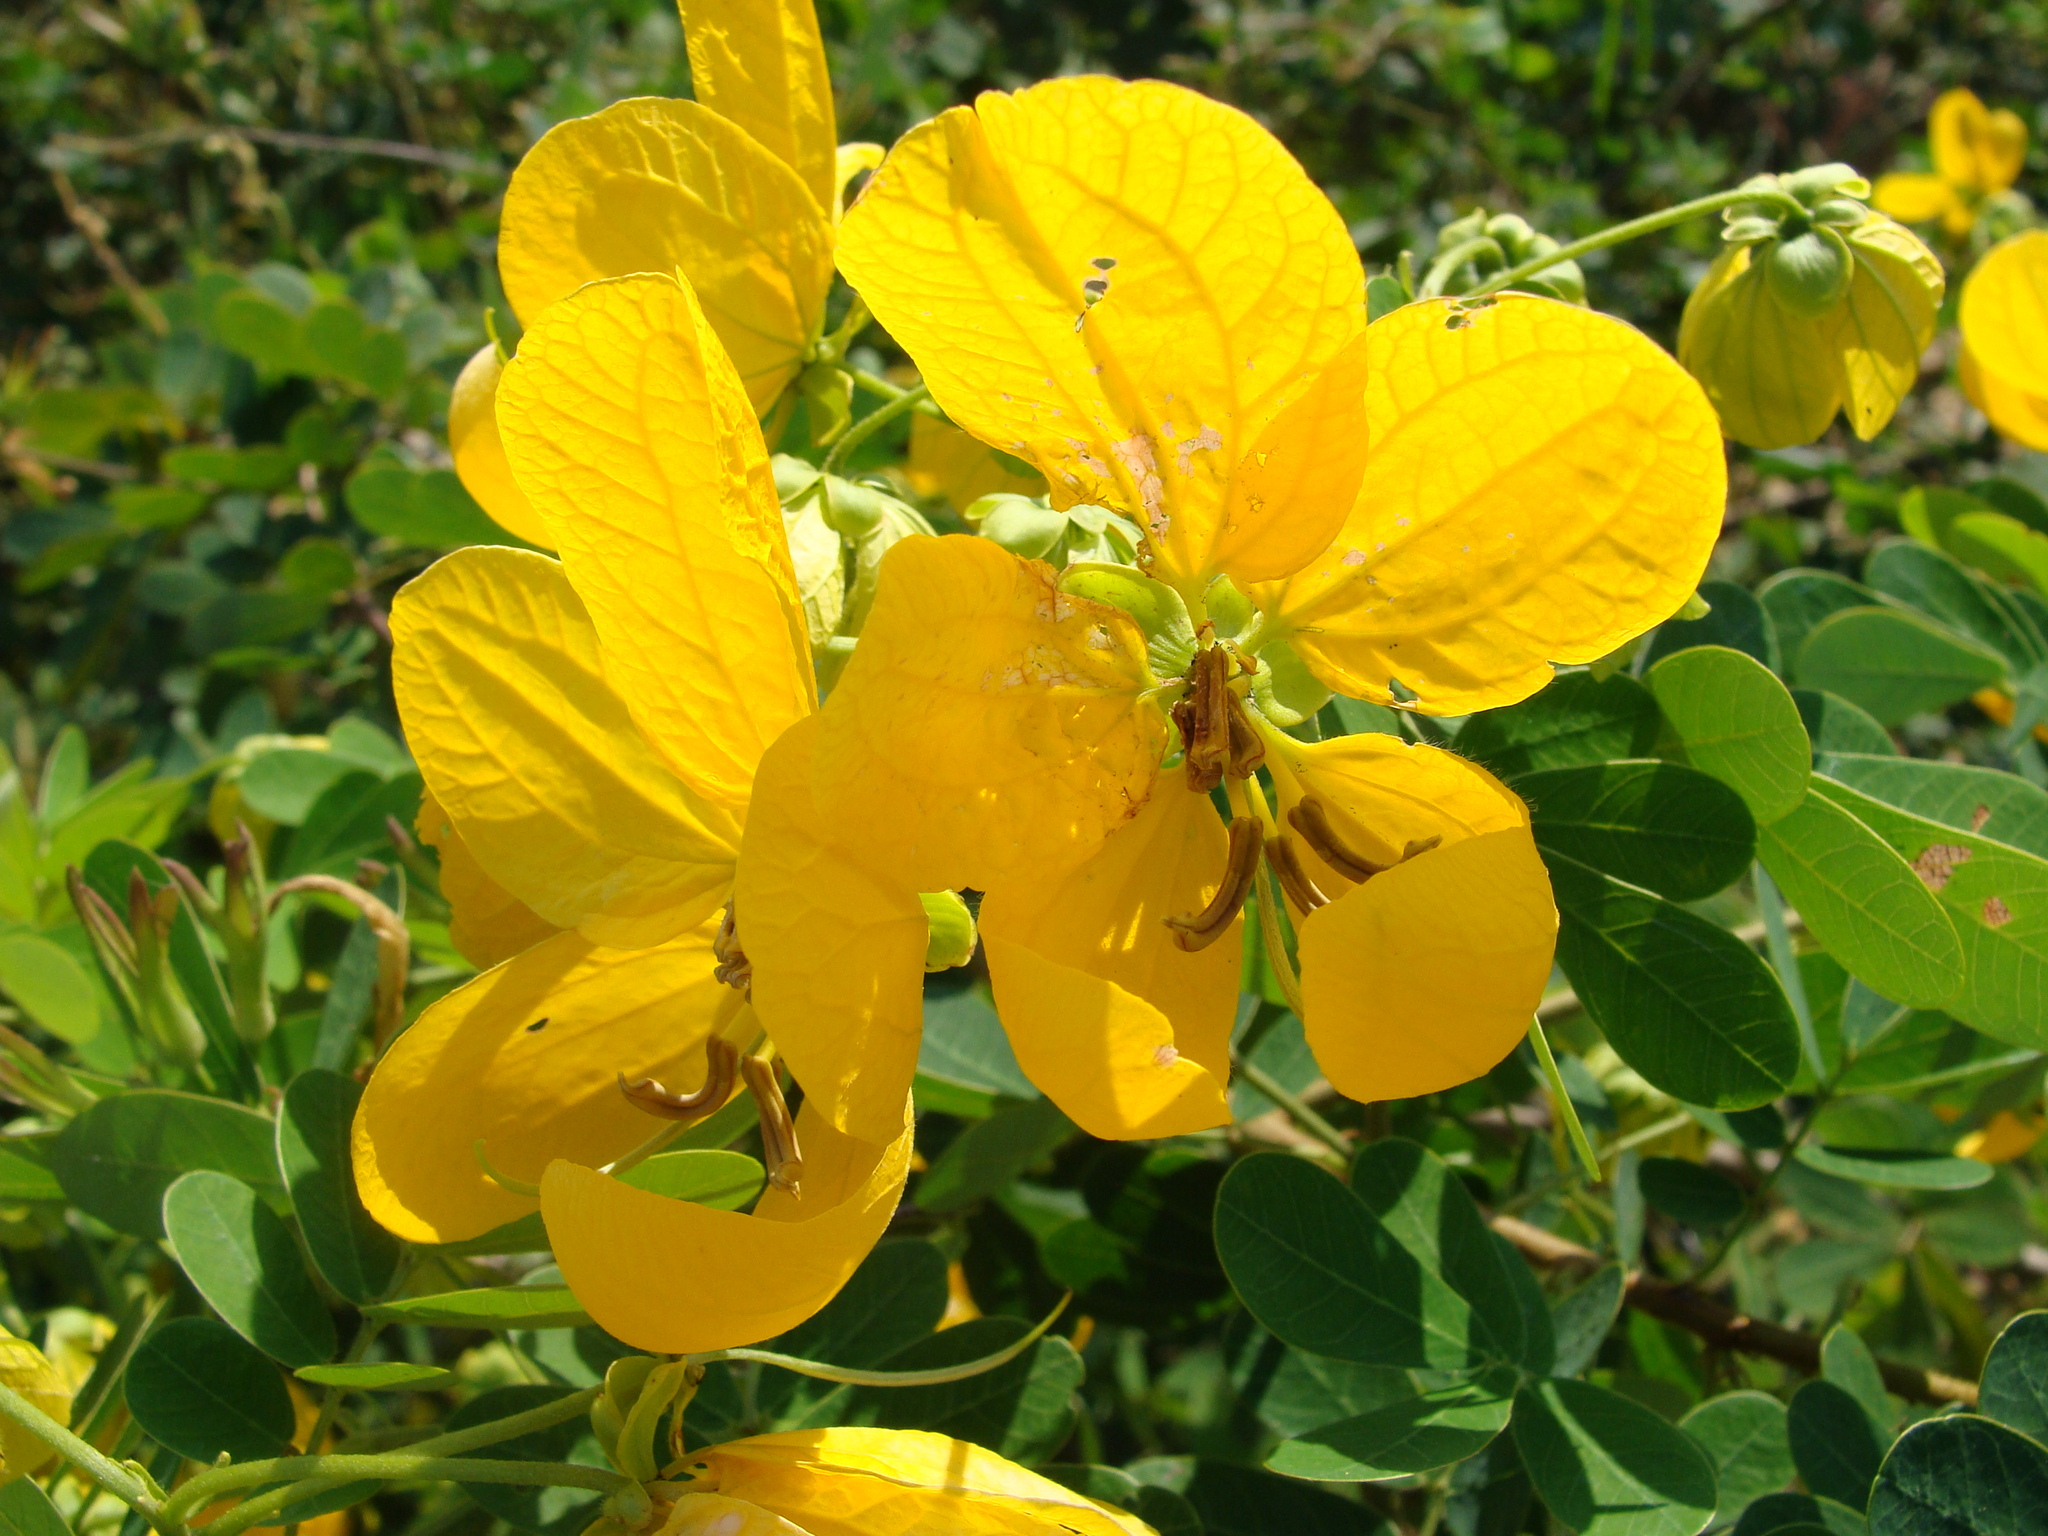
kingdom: Plantae
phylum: Tracheophyta
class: Magnoliopsida
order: Fabales
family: Fabaceae
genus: Senna
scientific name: Senna pallida
